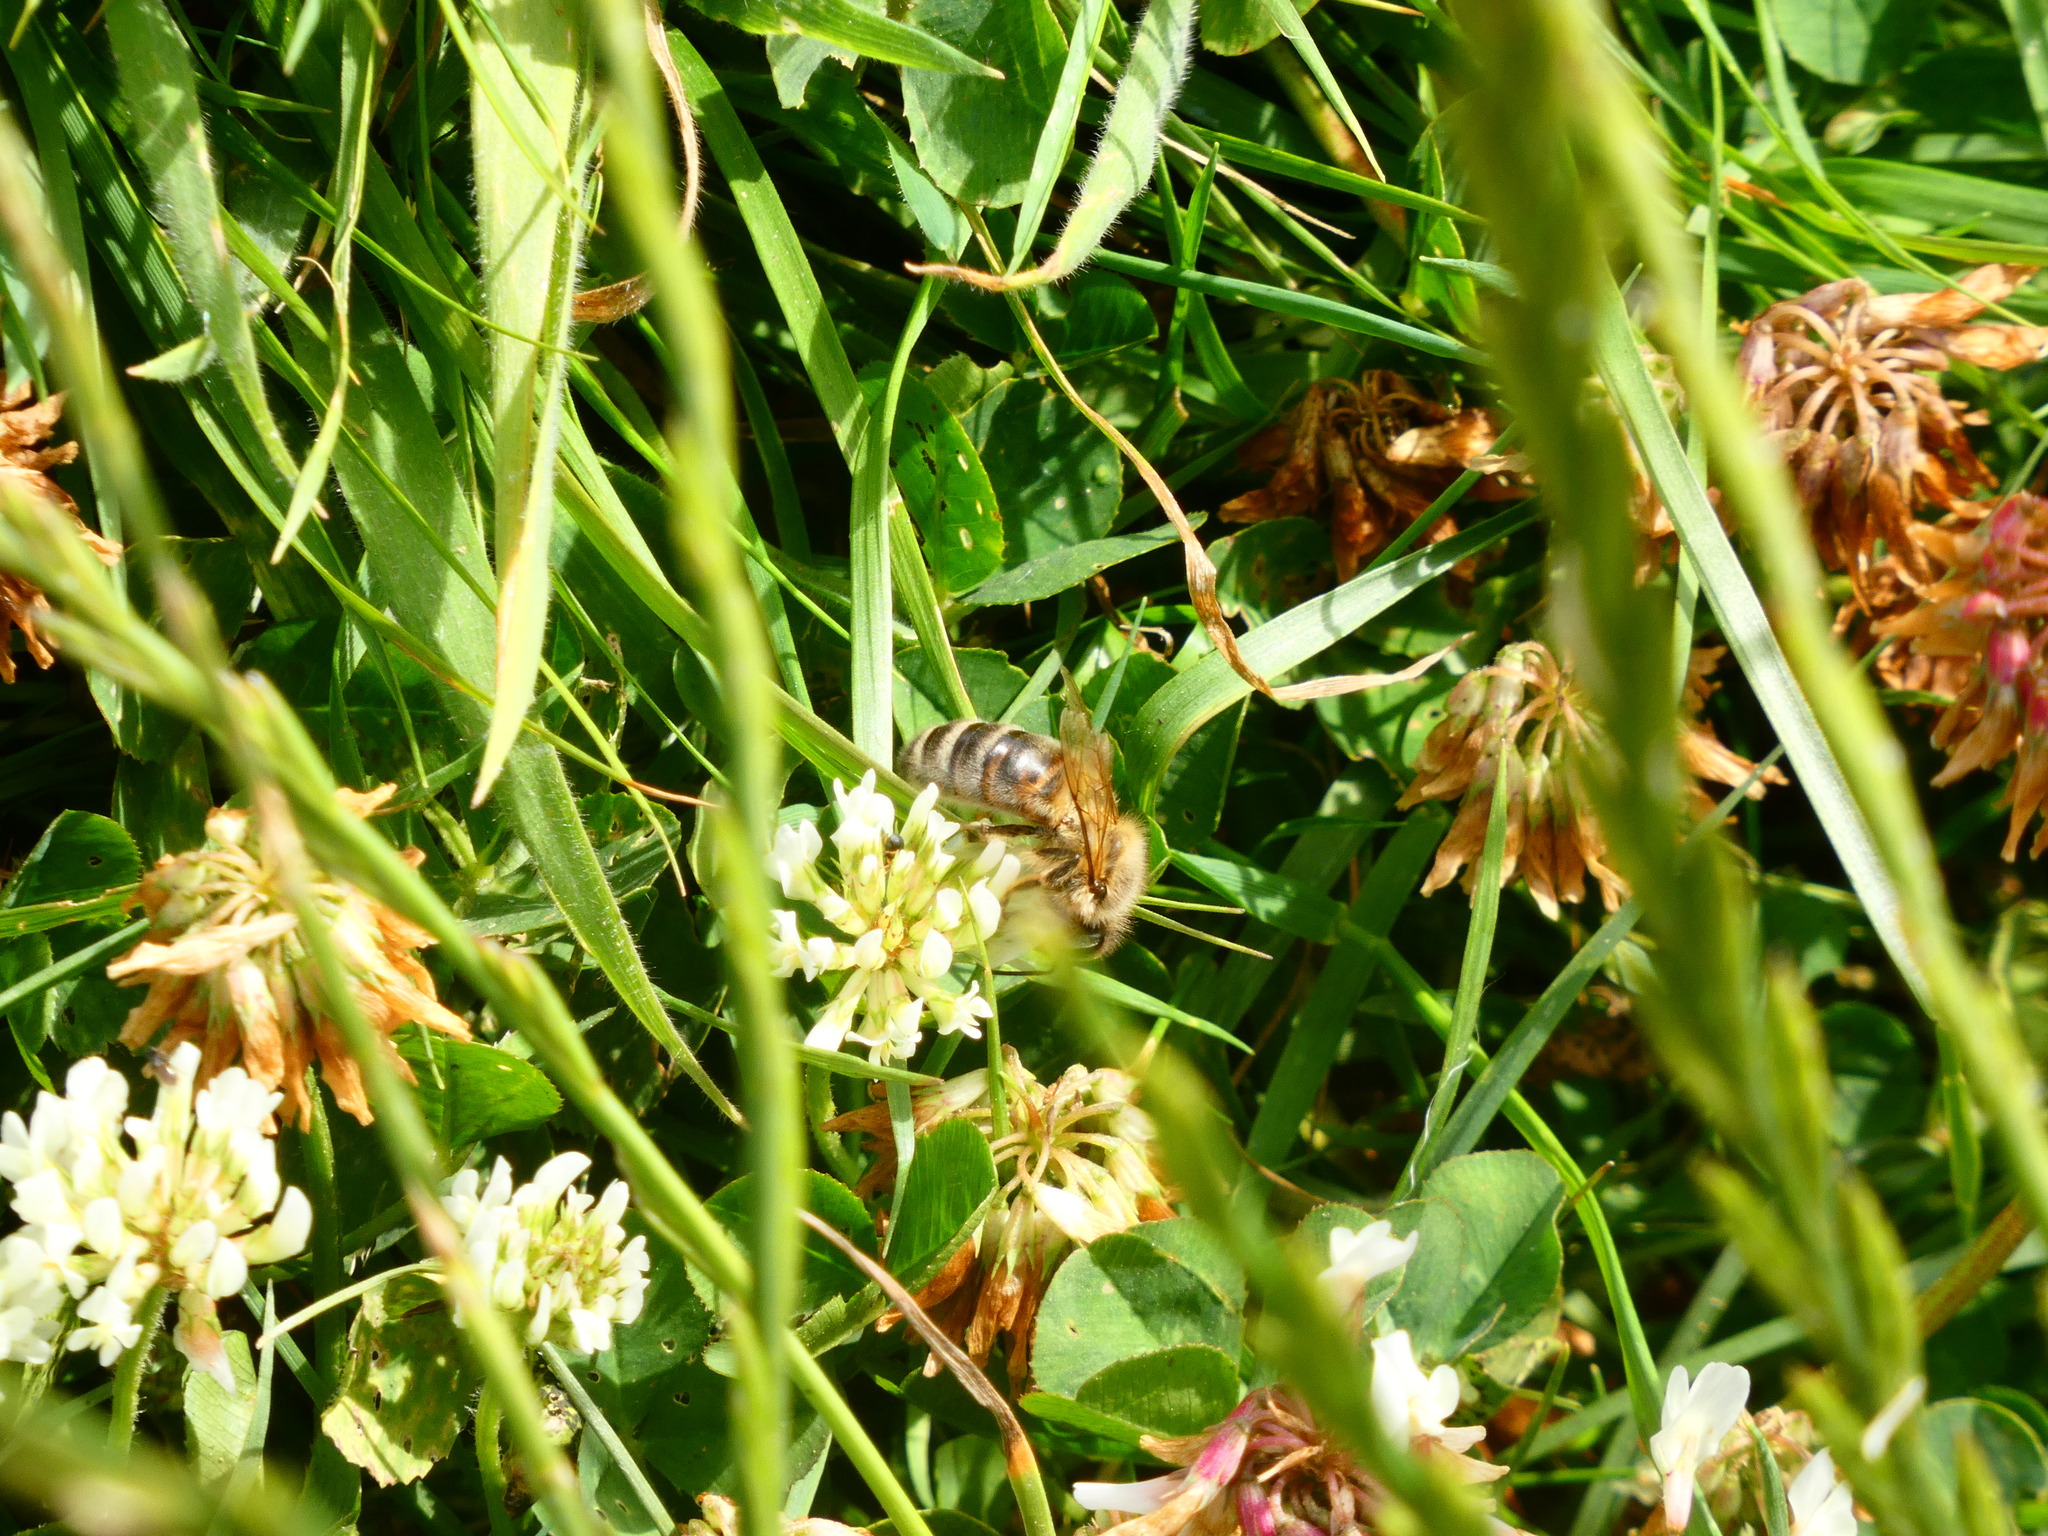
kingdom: Animalia
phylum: Arthropoda
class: Insecta
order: Hymenoptera
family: Apidae
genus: Apis
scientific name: Apis mellifera
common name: Honey bee
